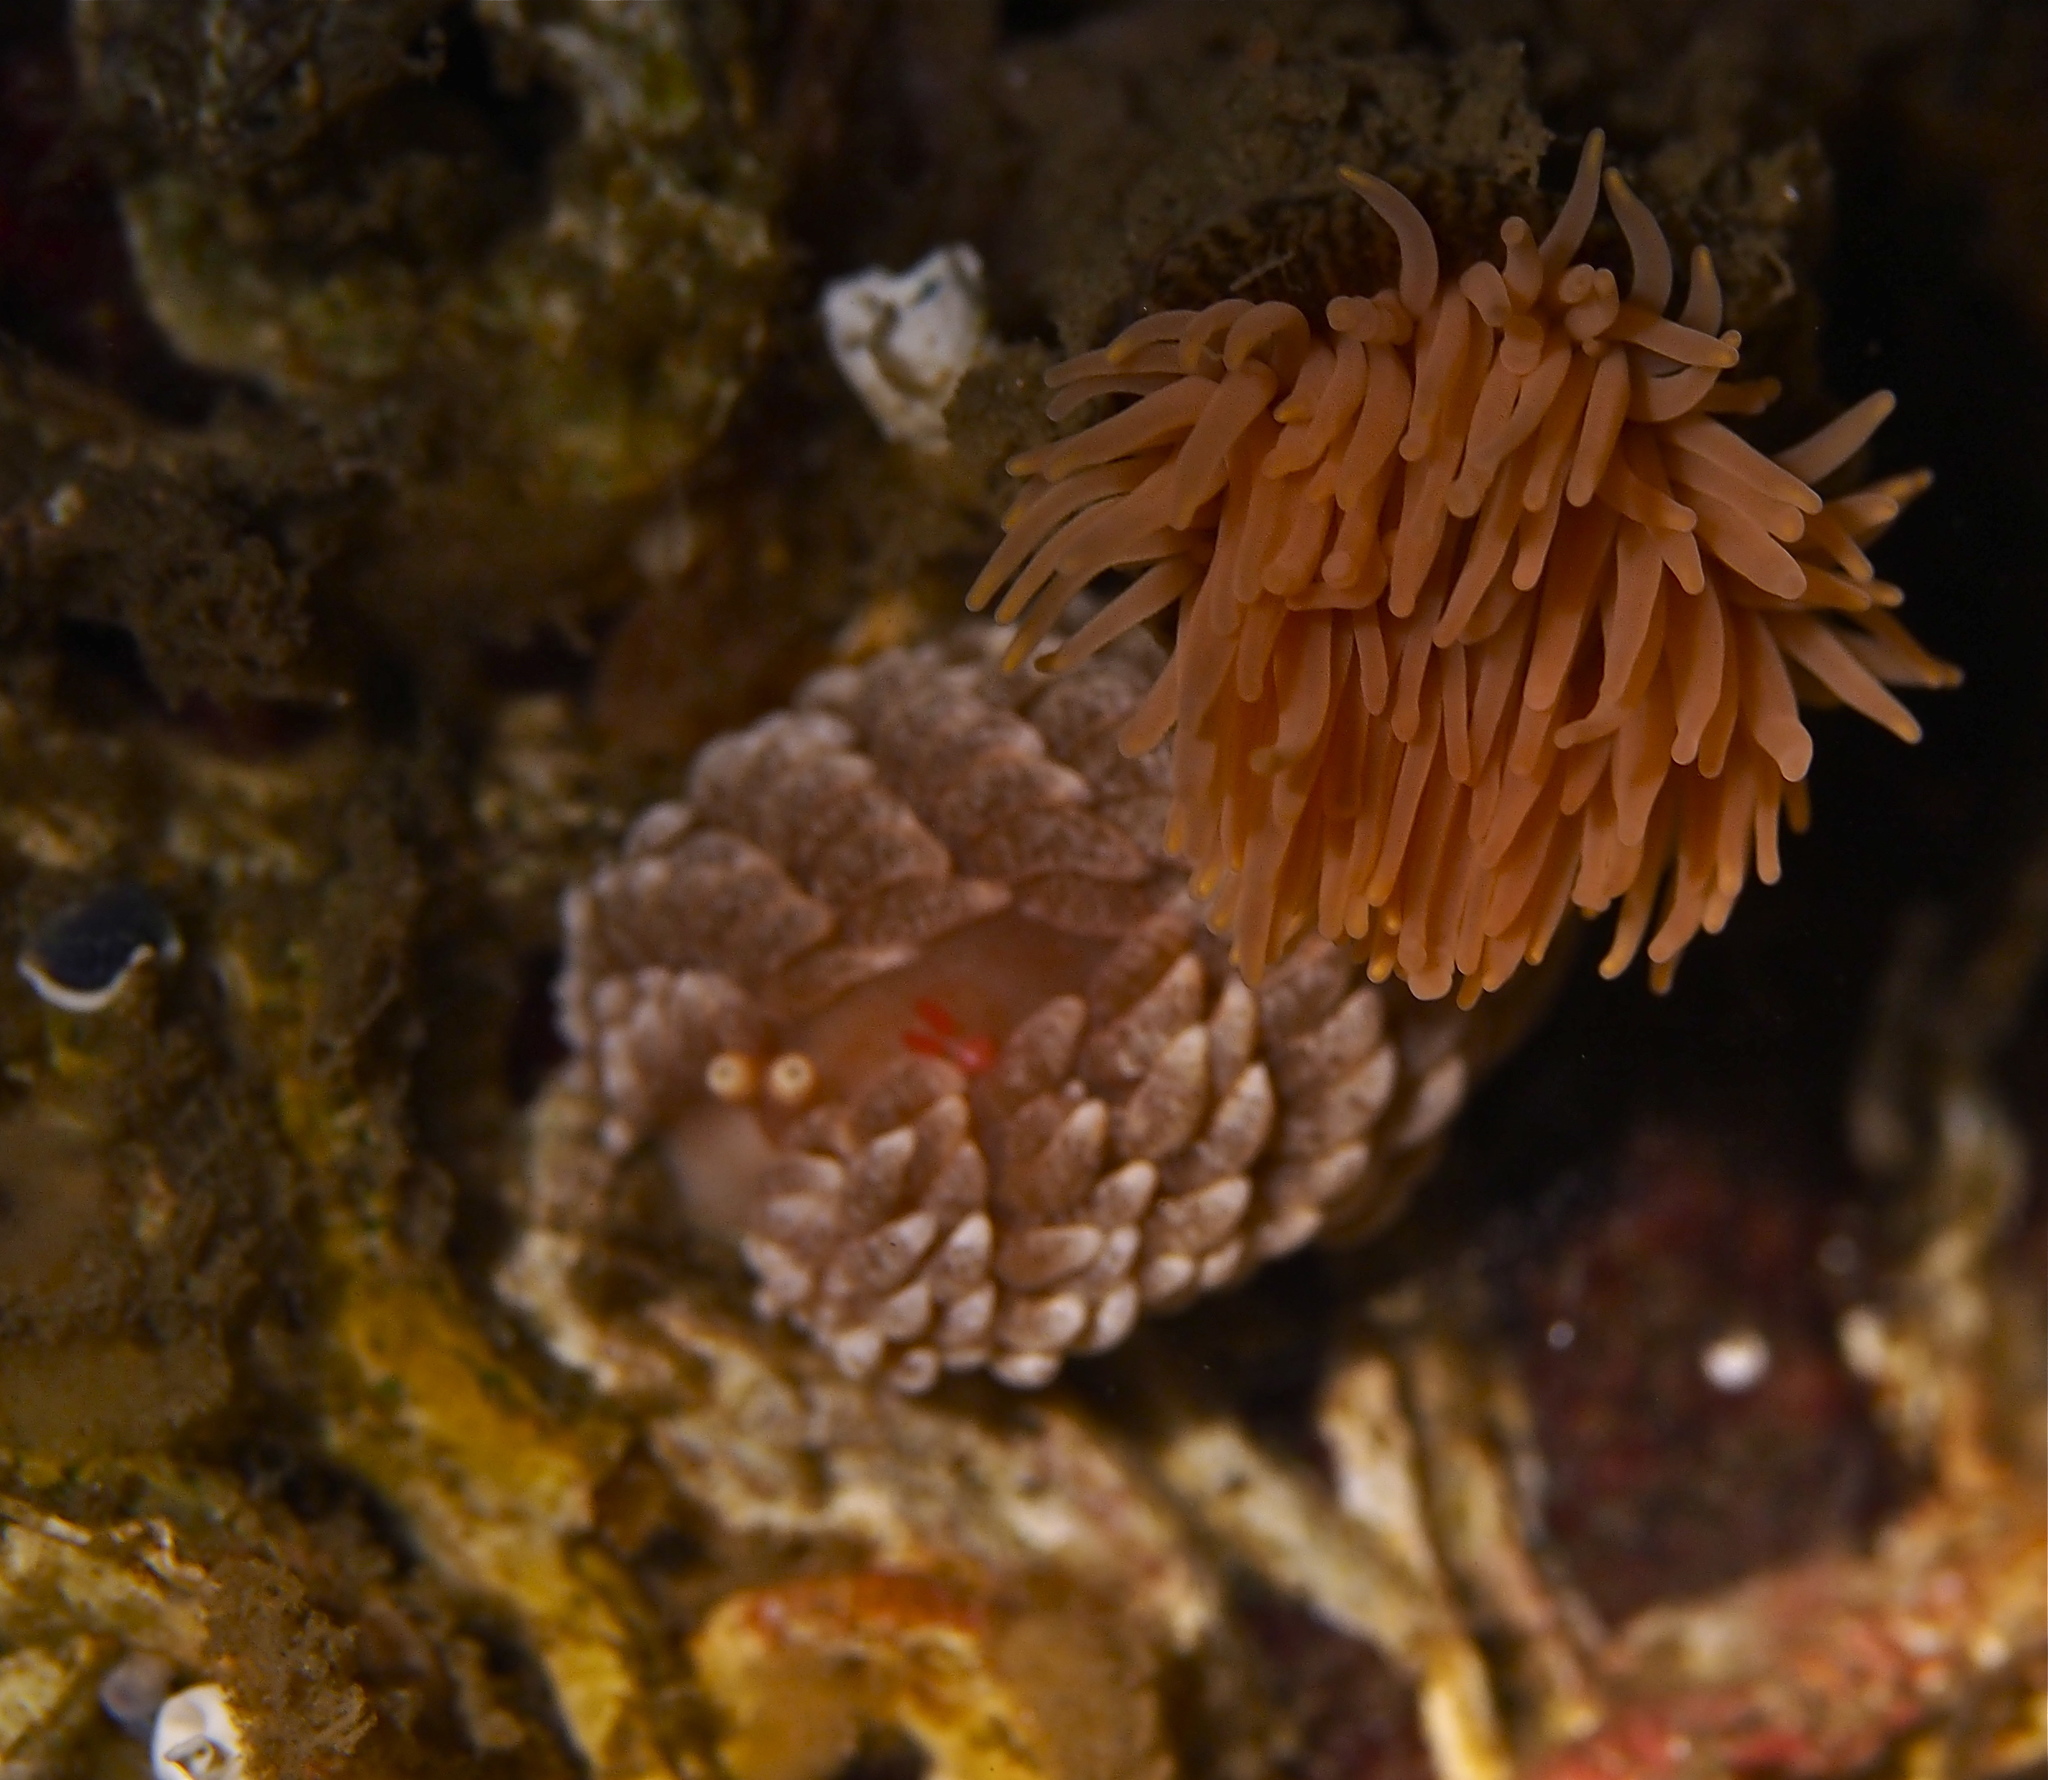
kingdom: Animalia
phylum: Mollusca
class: Gastropoda
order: Nudibranchia
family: Aeolidiidae
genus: Aeolidiella
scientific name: Aeolidiella glauca
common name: Orange-brown aeolid
